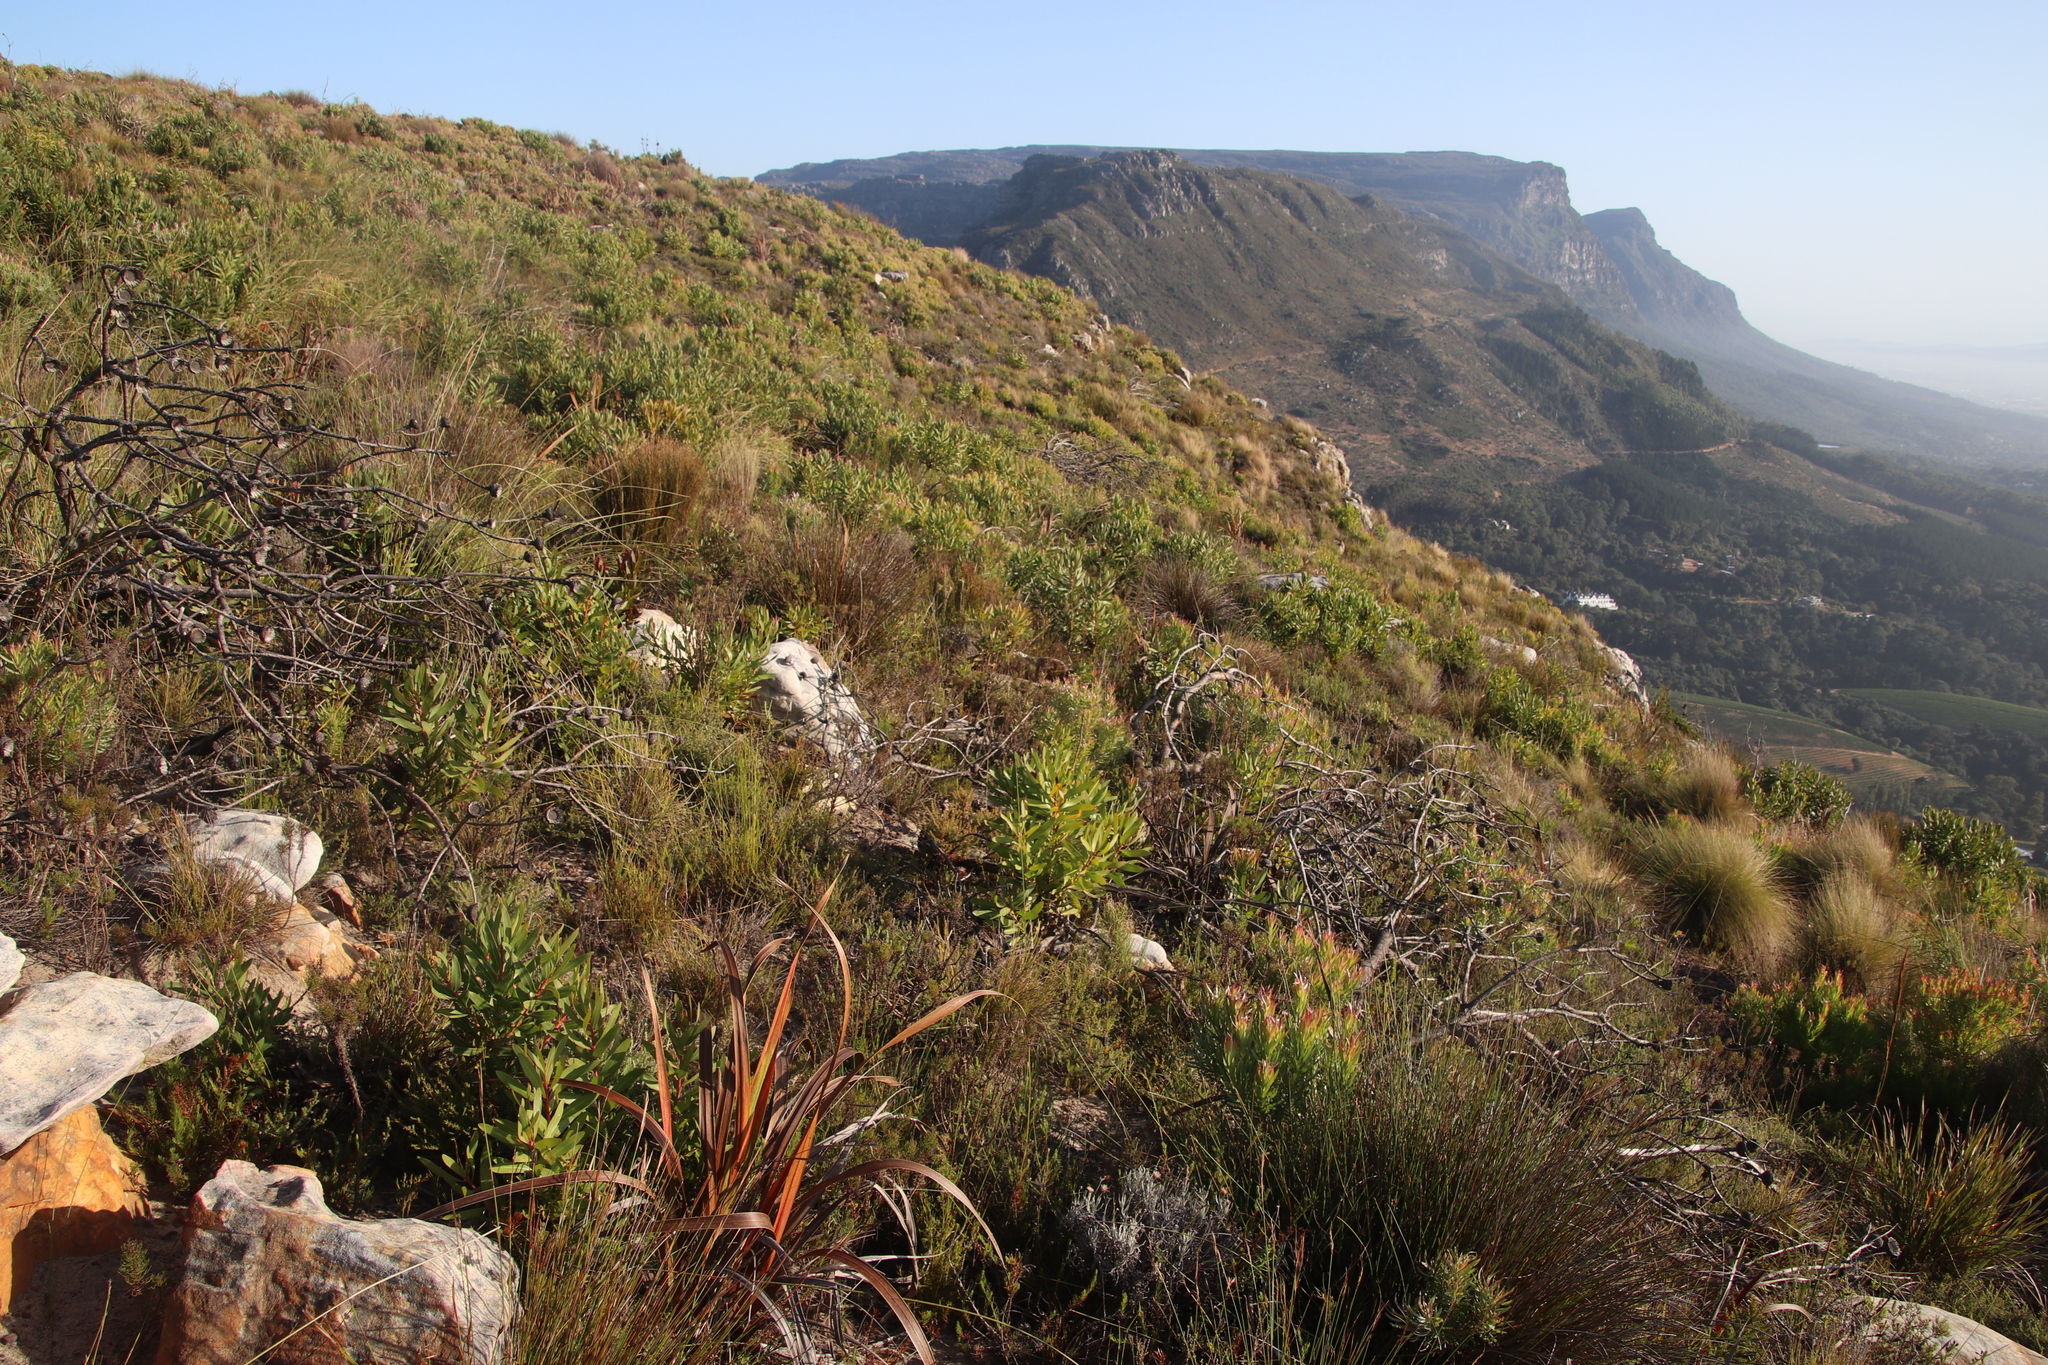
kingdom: Plantae
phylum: Tracheophyta
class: Magnoliopsida
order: Proteales
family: Proteaceae
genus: Protea
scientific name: Protea lepidocarpodendron
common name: Black-bearded protea
